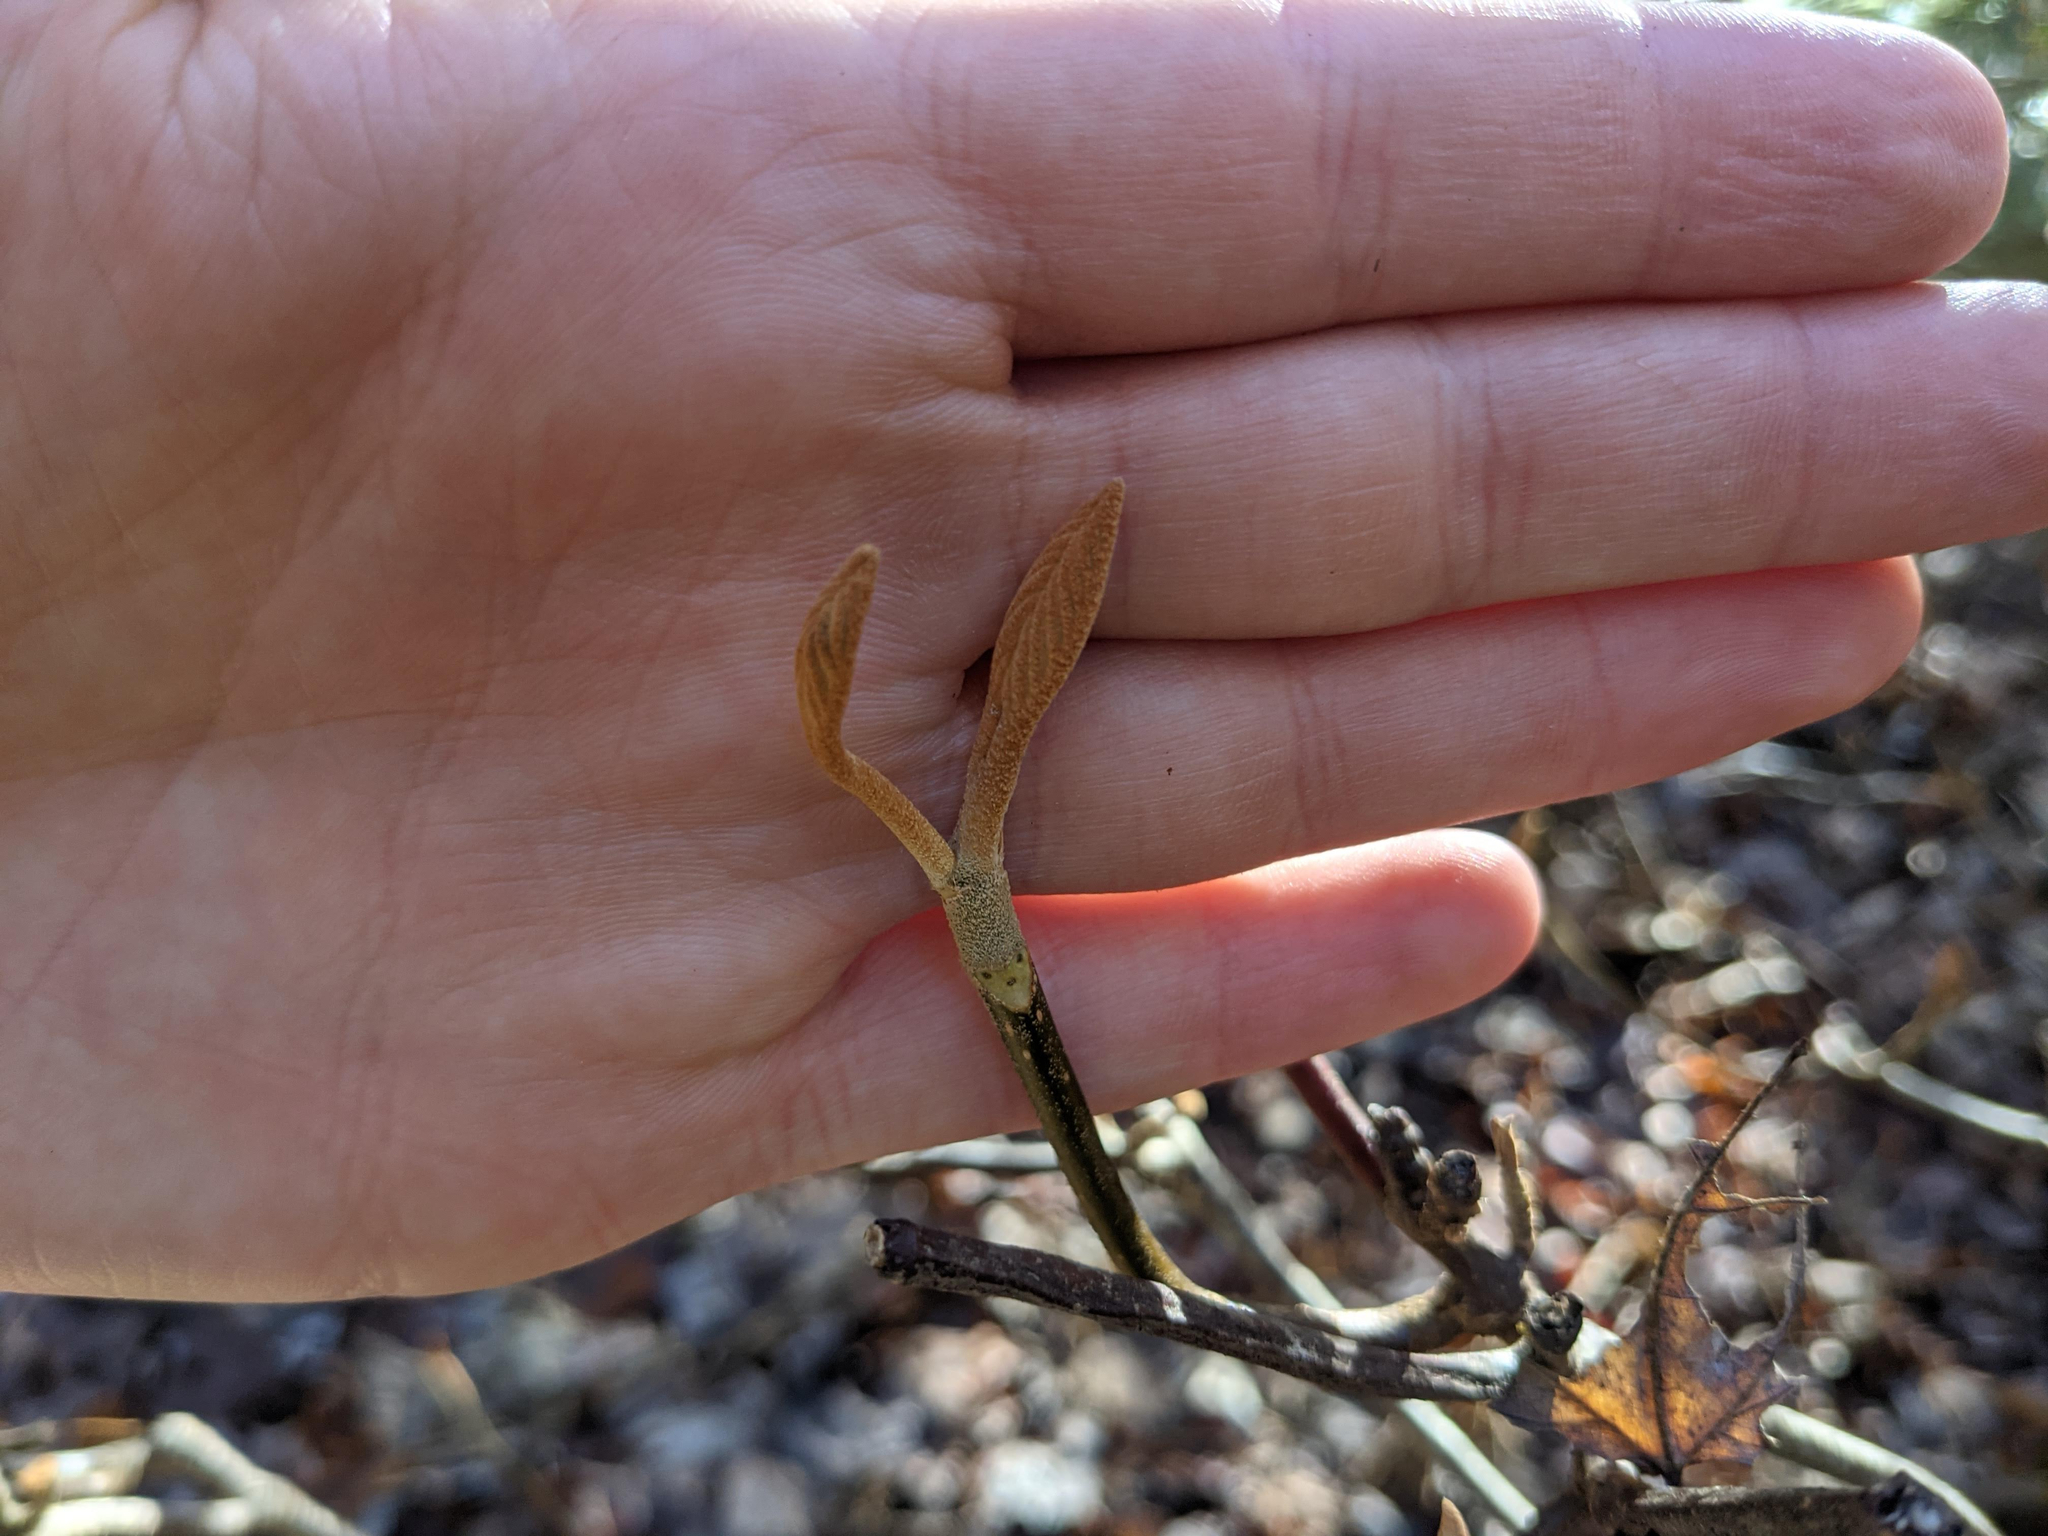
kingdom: Plantae
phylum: Tracheophyta
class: Magnoliopsida
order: Dipsacales
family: Viburnaceae
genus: Viburnum
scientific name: Viburnum lantanoides
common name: Hobblebush
